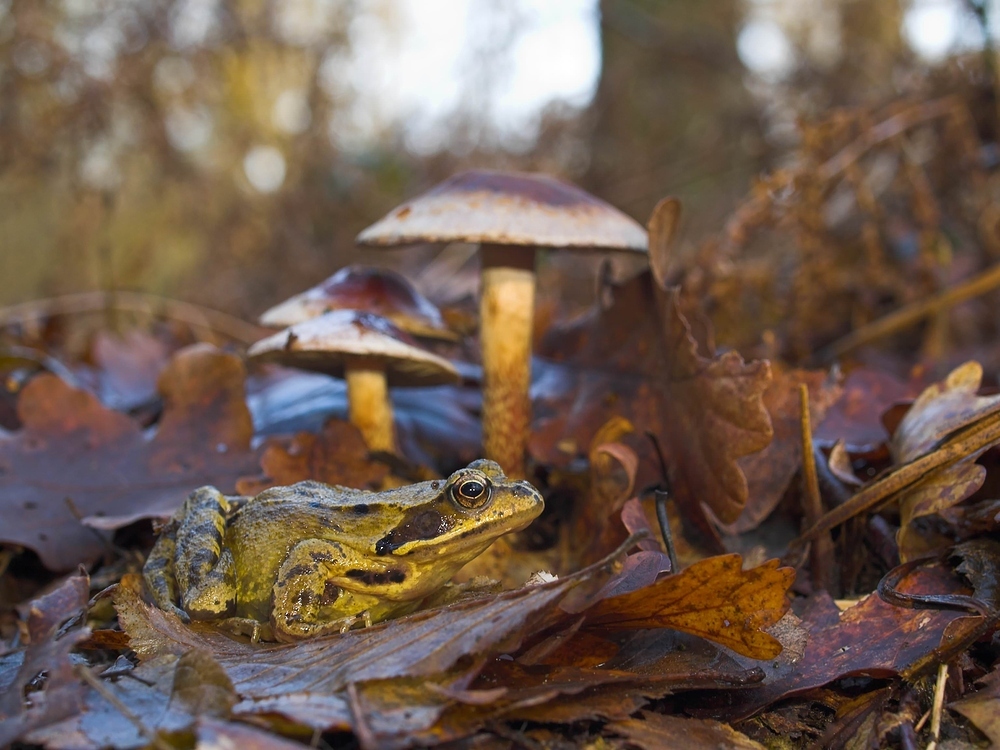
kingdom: Animalia
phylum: Chordata
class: Amphibia
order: Anura
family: Ranidae
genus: Rana
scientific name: Rana temporaria
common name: Common frog
